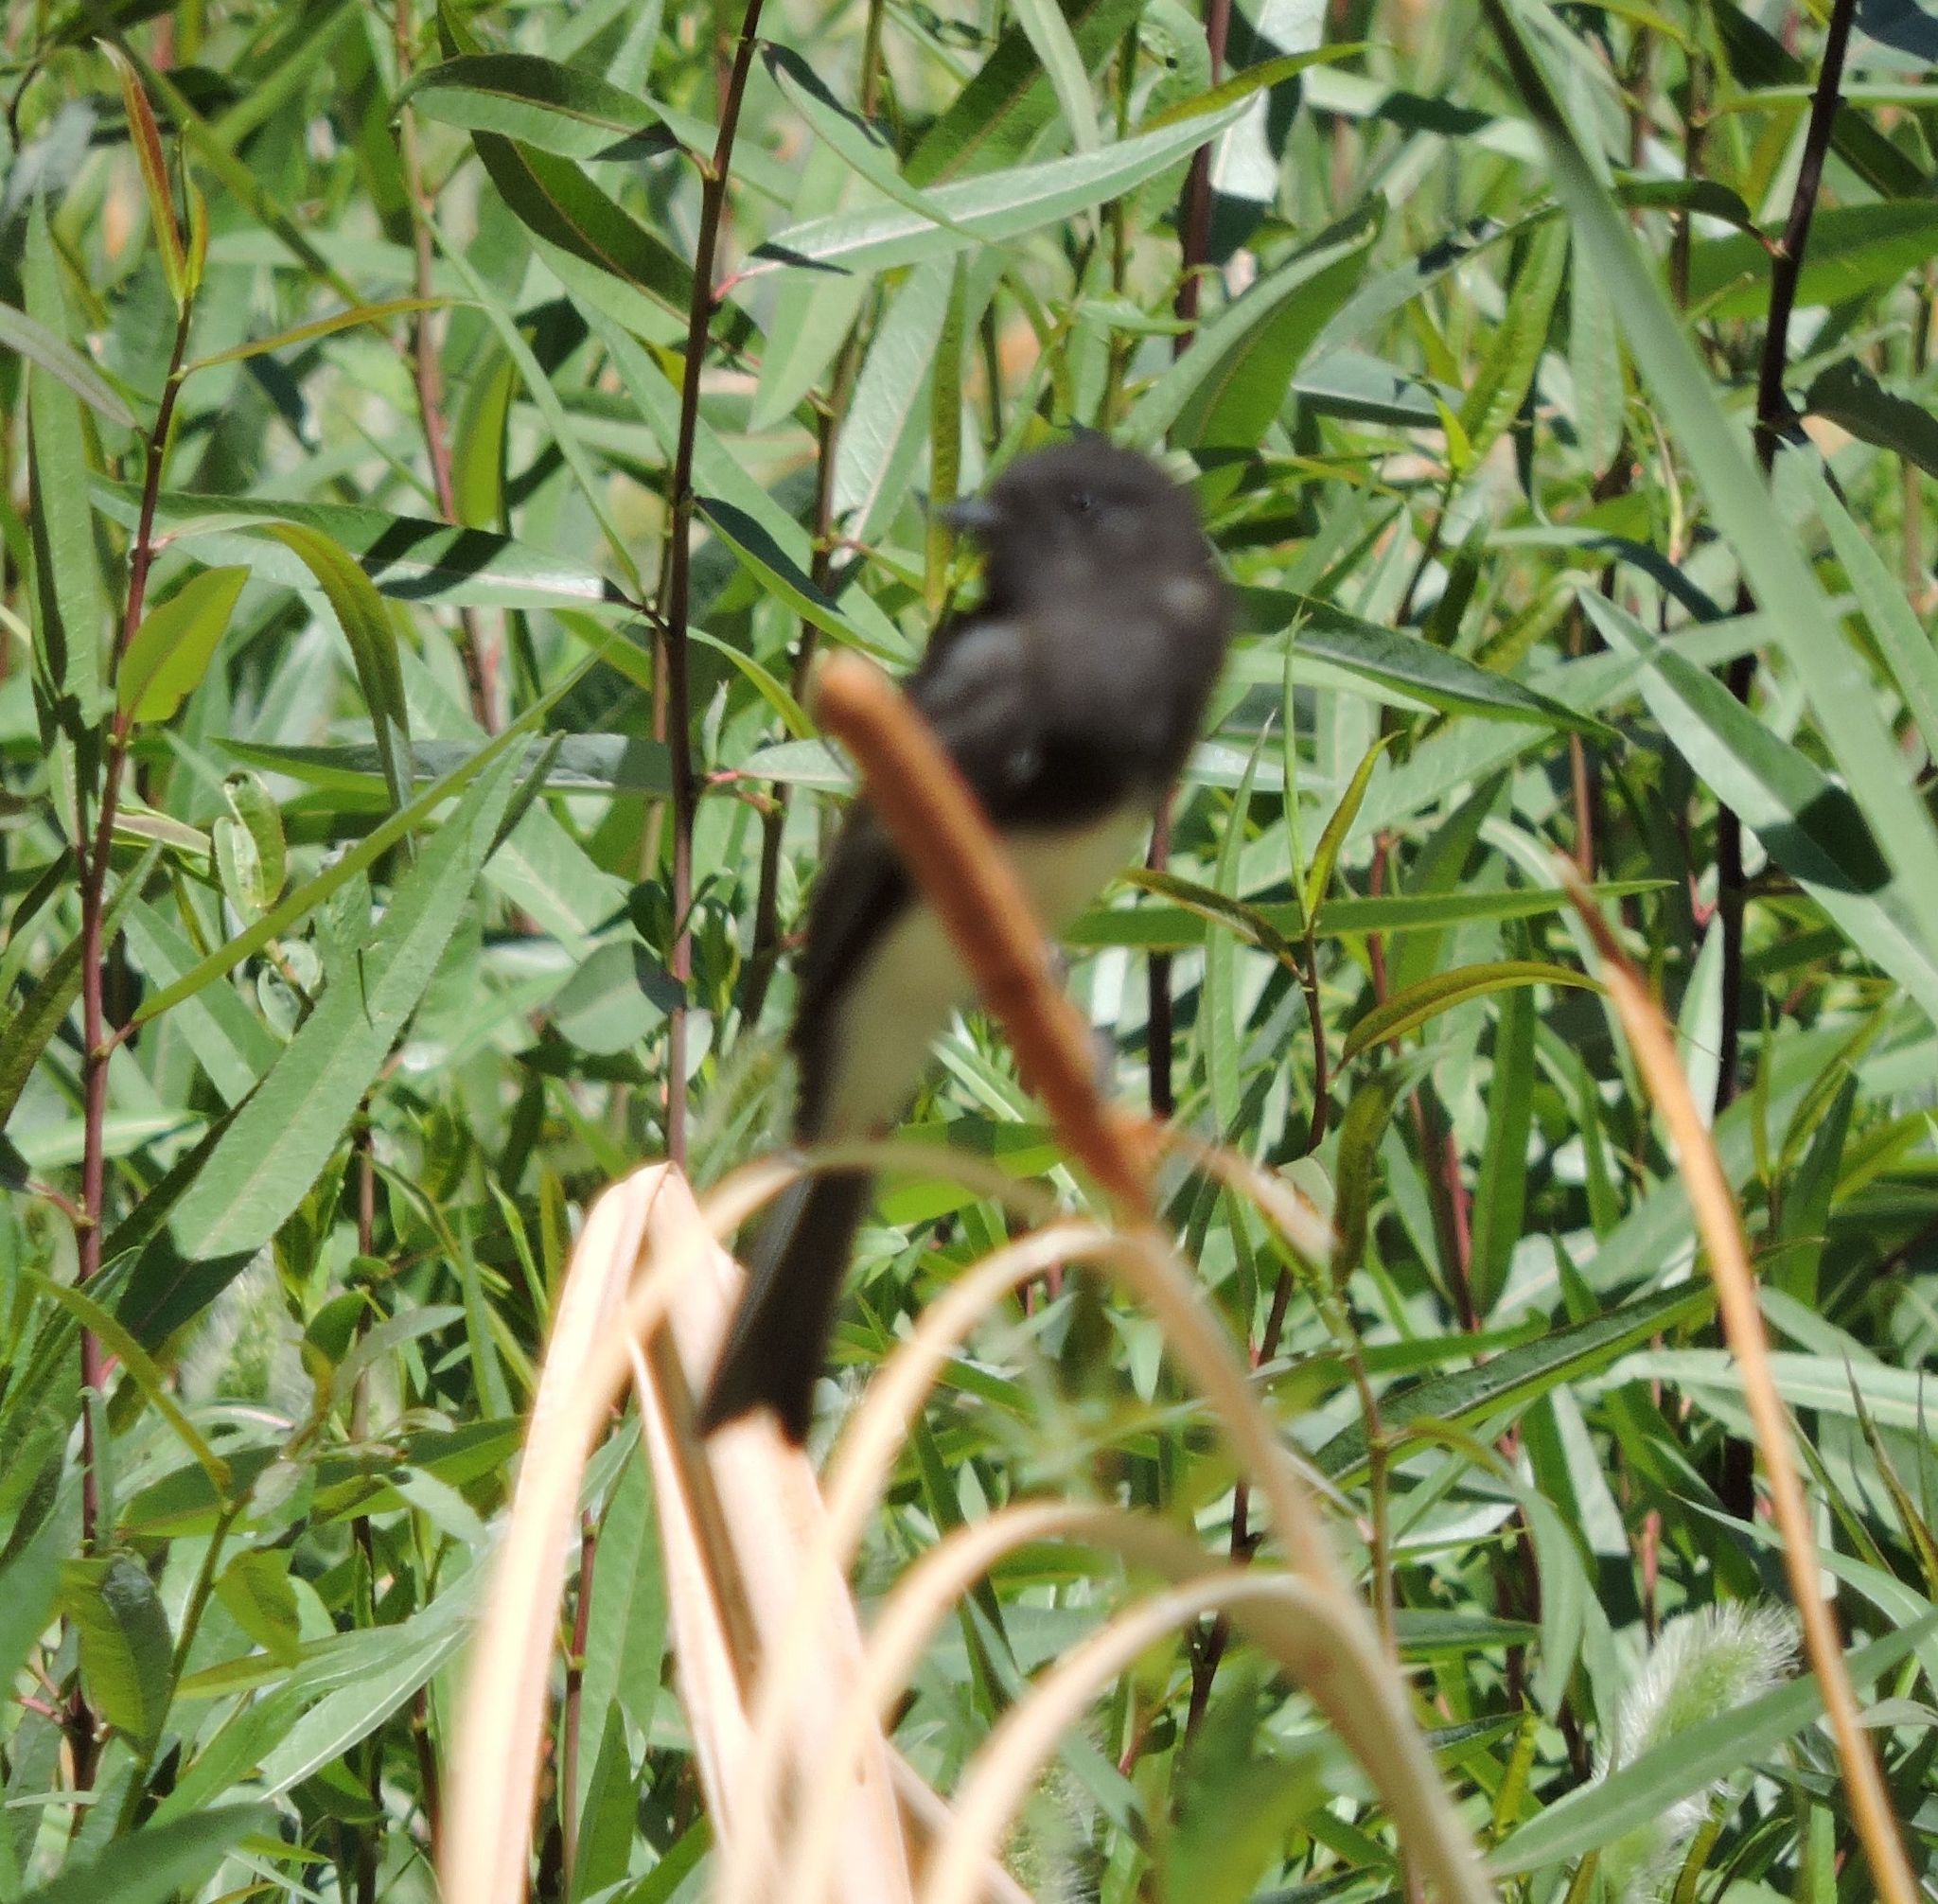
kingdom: Animalia
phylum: Chordata
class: Aves
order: Passeriformes
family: Tyrannidae
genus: Sayornis
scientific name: Sayornis nigricans
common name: Black phoebe
